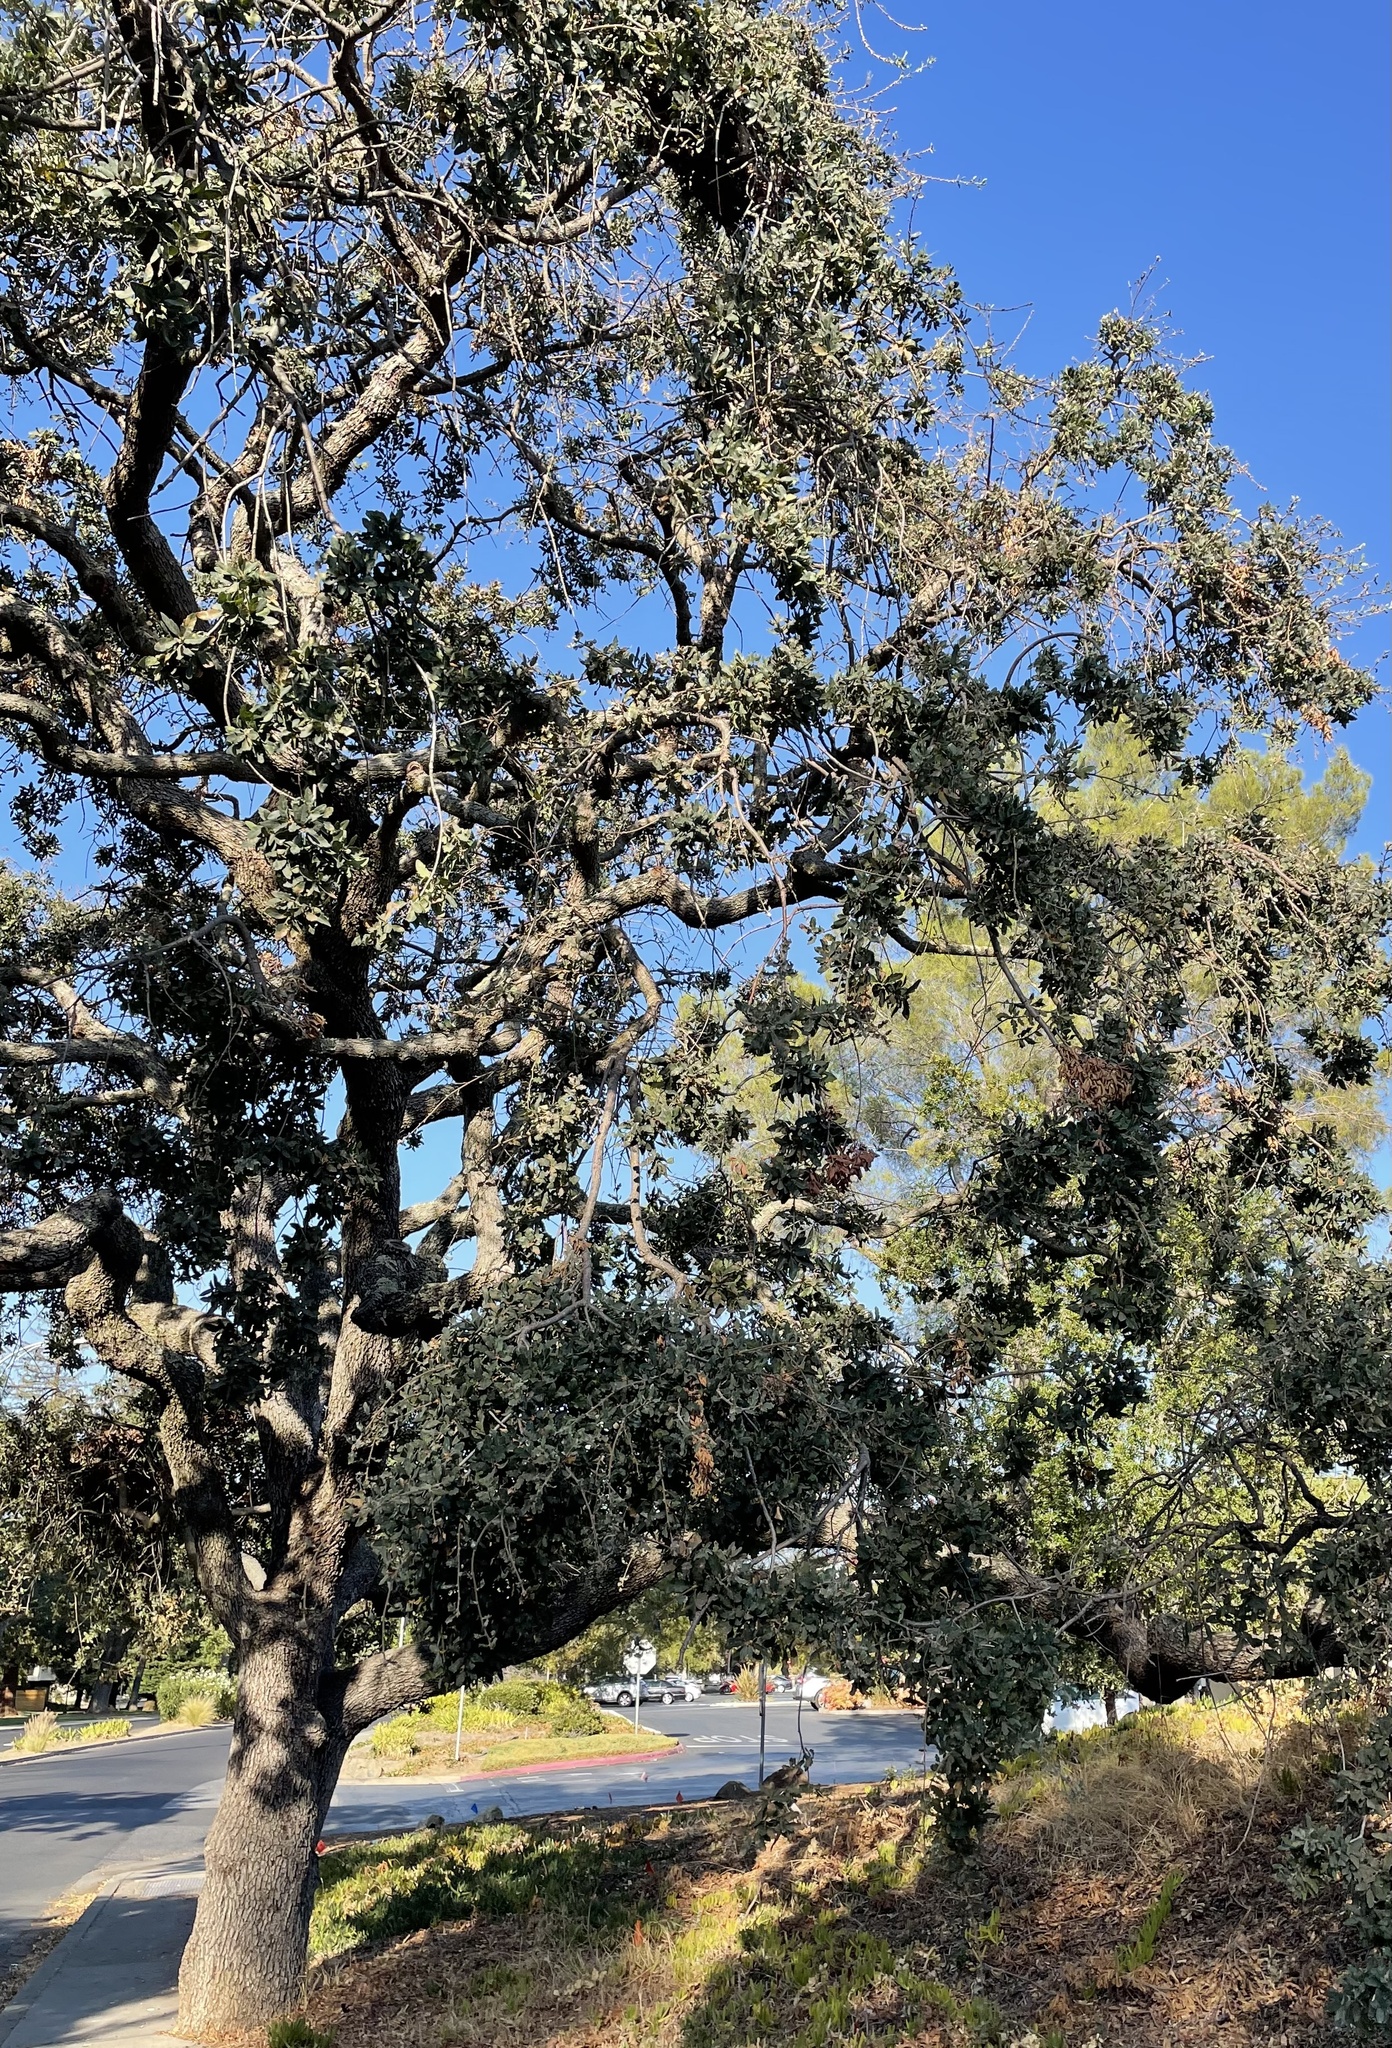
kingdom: Animalia
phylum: Arthropoda
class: Insecta
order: Hymenoptera
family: Cynipidae
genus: Andricus
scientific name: Andricus
